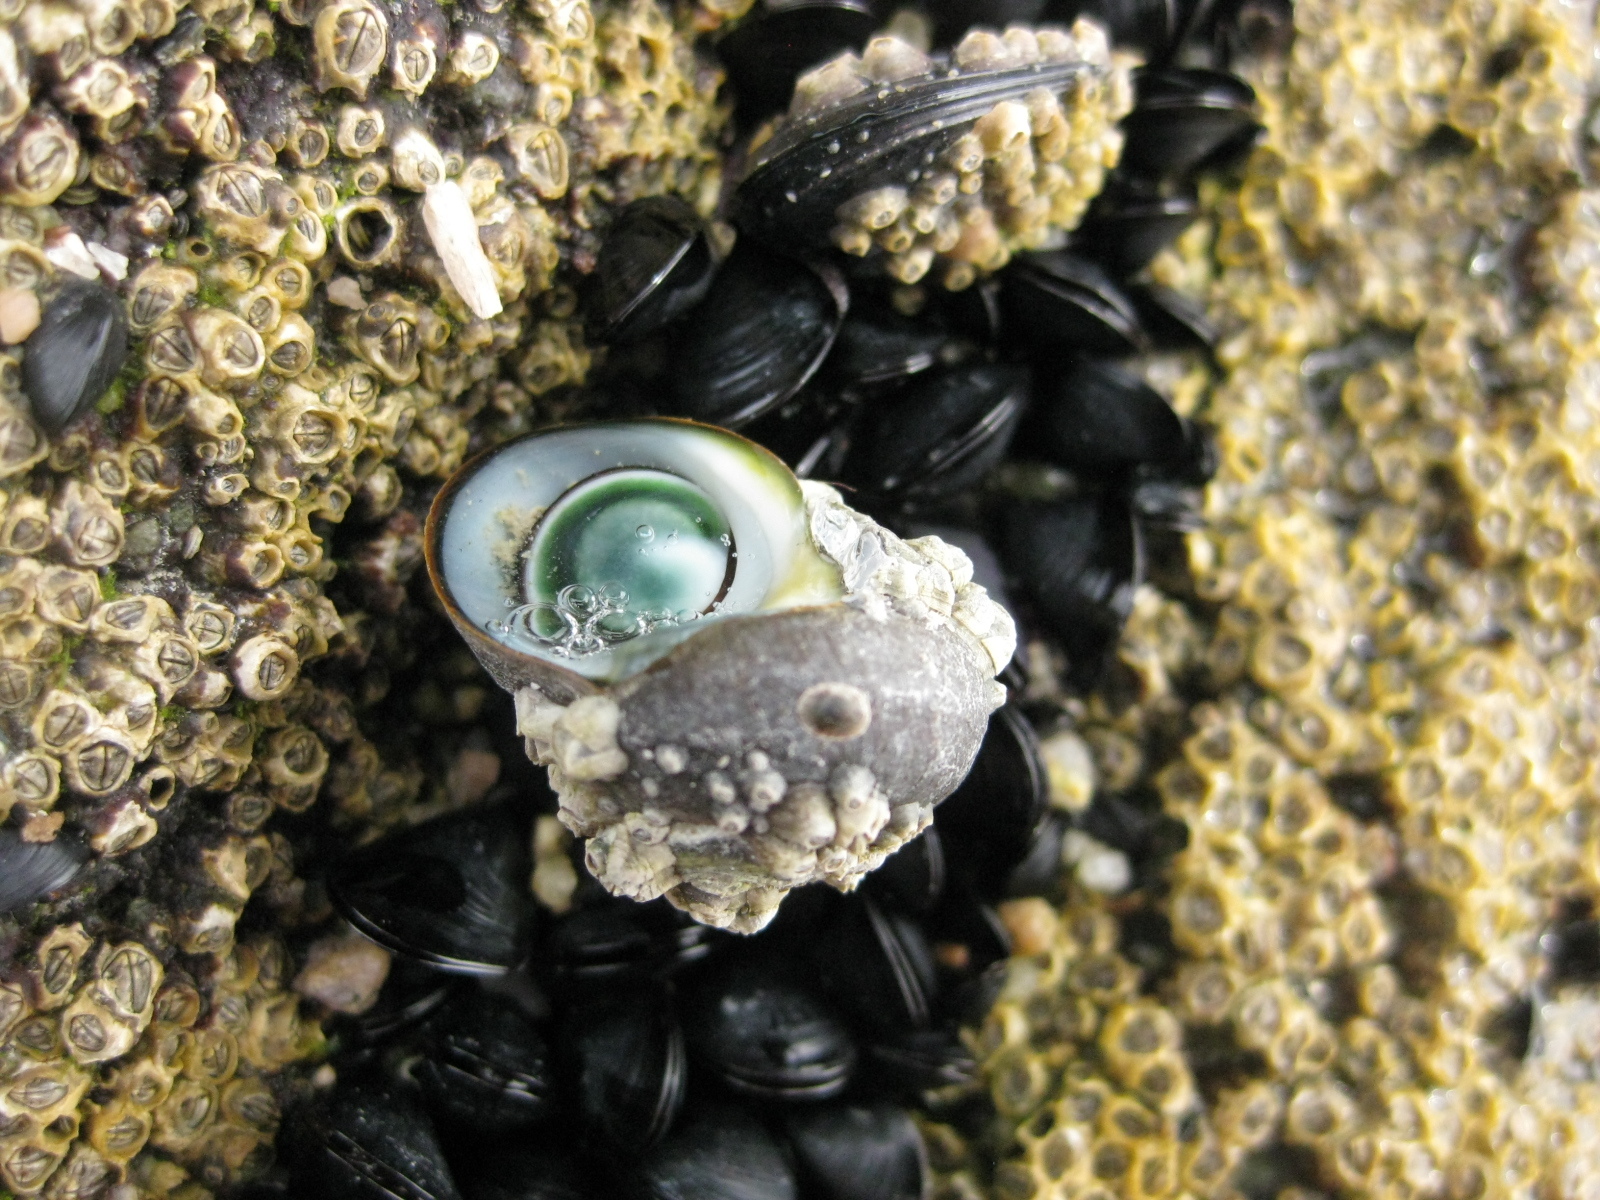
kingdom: Animalia
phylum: Mollusca
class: Gastropoda
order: Trochida
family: Turbinidae
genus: Lunella
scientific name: Lunella smaragda
